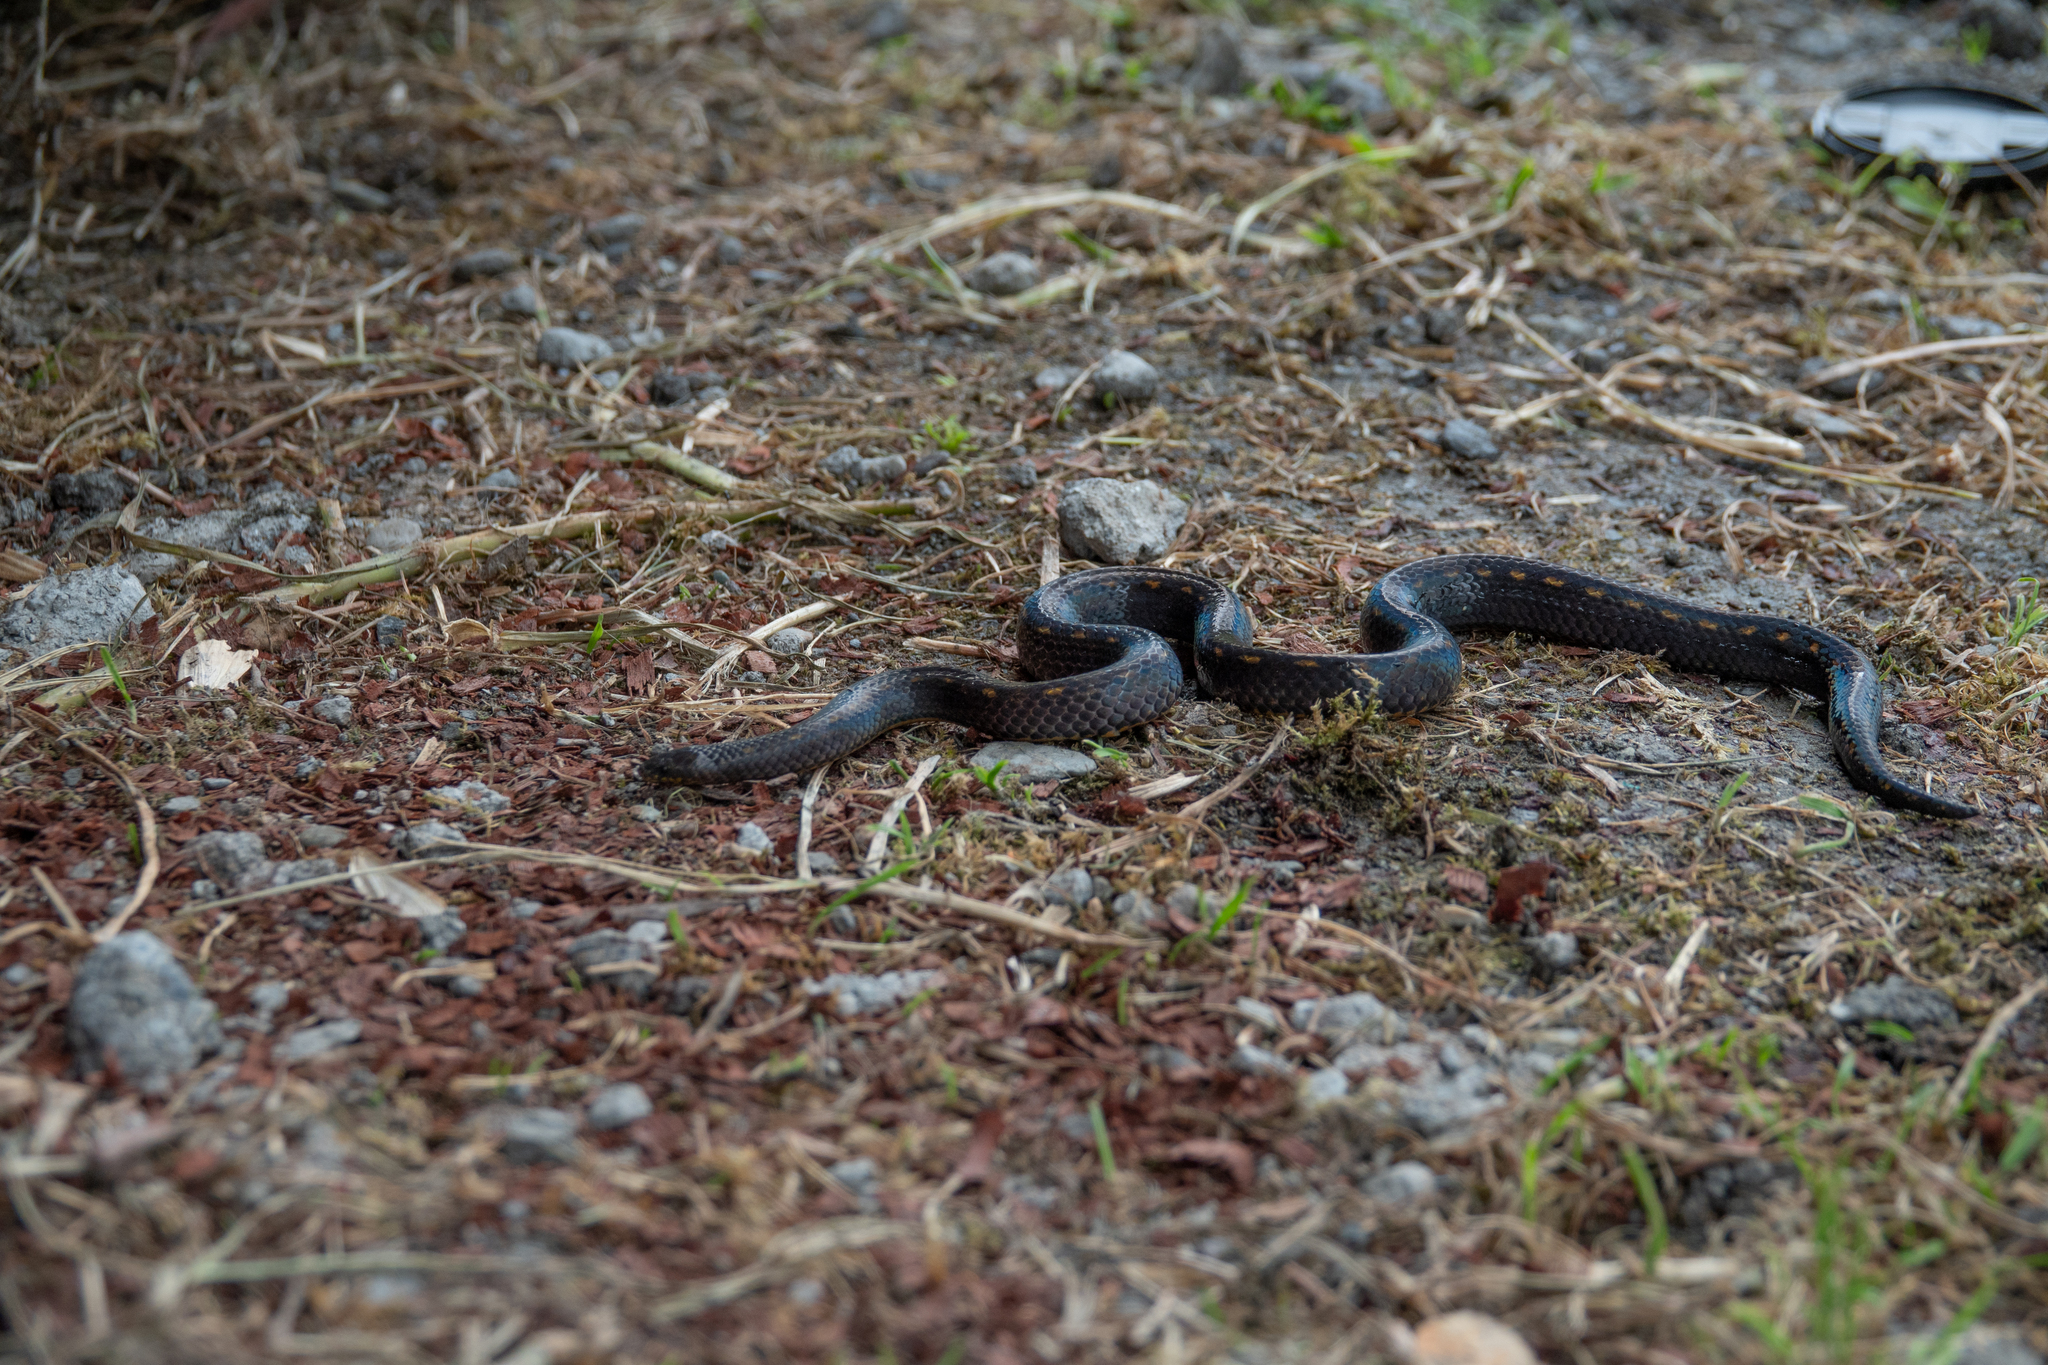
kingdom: Animalia
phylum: Chordata
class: Squamata
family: Colubridae
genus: Atractus
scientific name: Atractus duboisi
